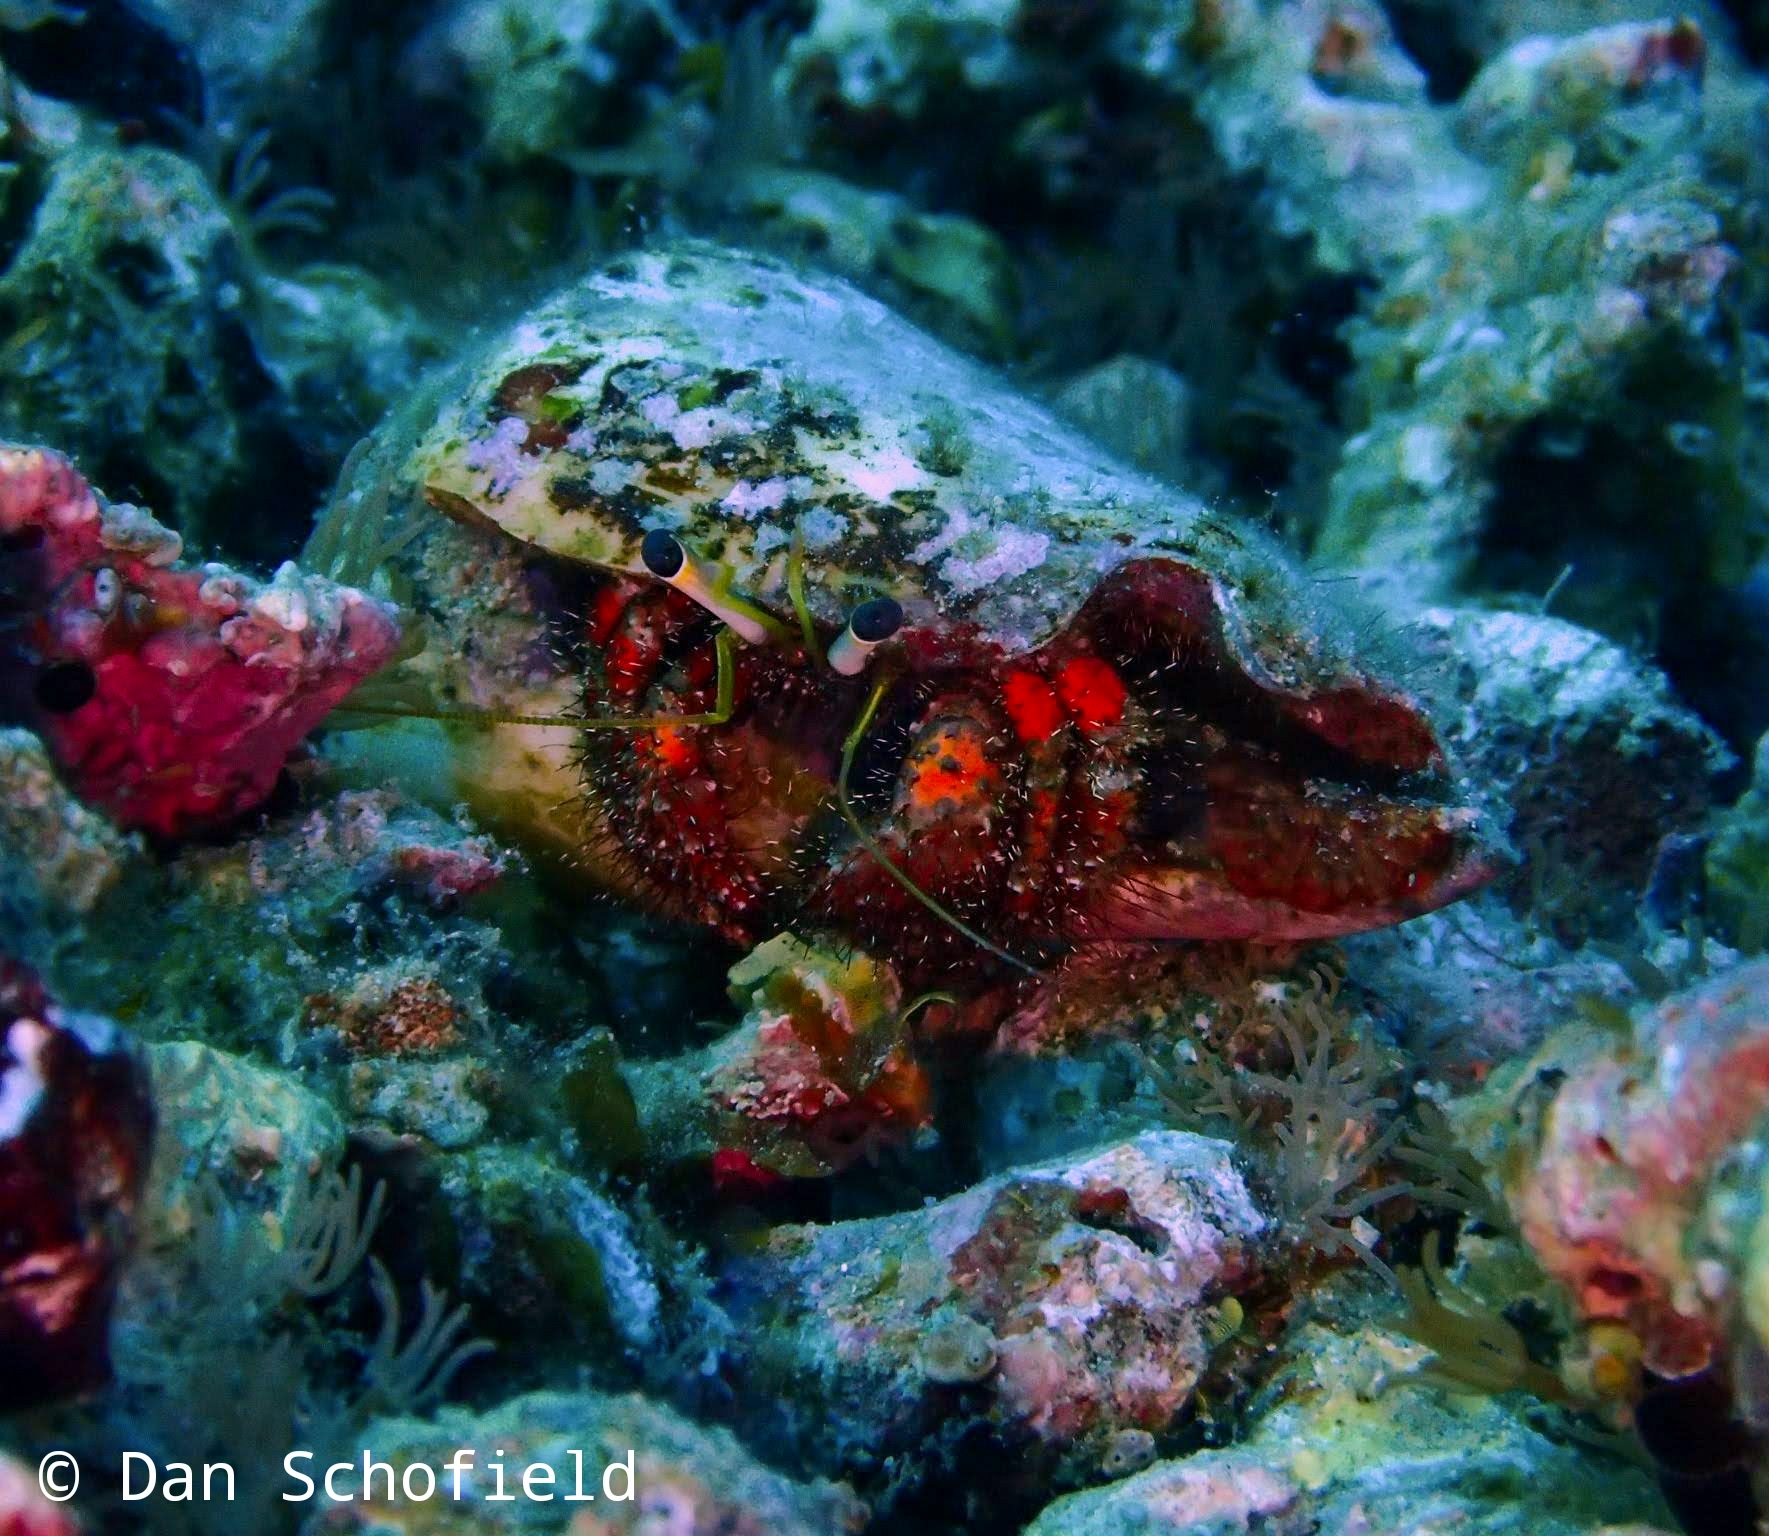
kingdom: Animalia
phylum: Arthropoda
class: Malacostraca
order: Decapoda
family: Diogenidae
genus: Dardanus
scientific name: Dardanus sanguinolentus
